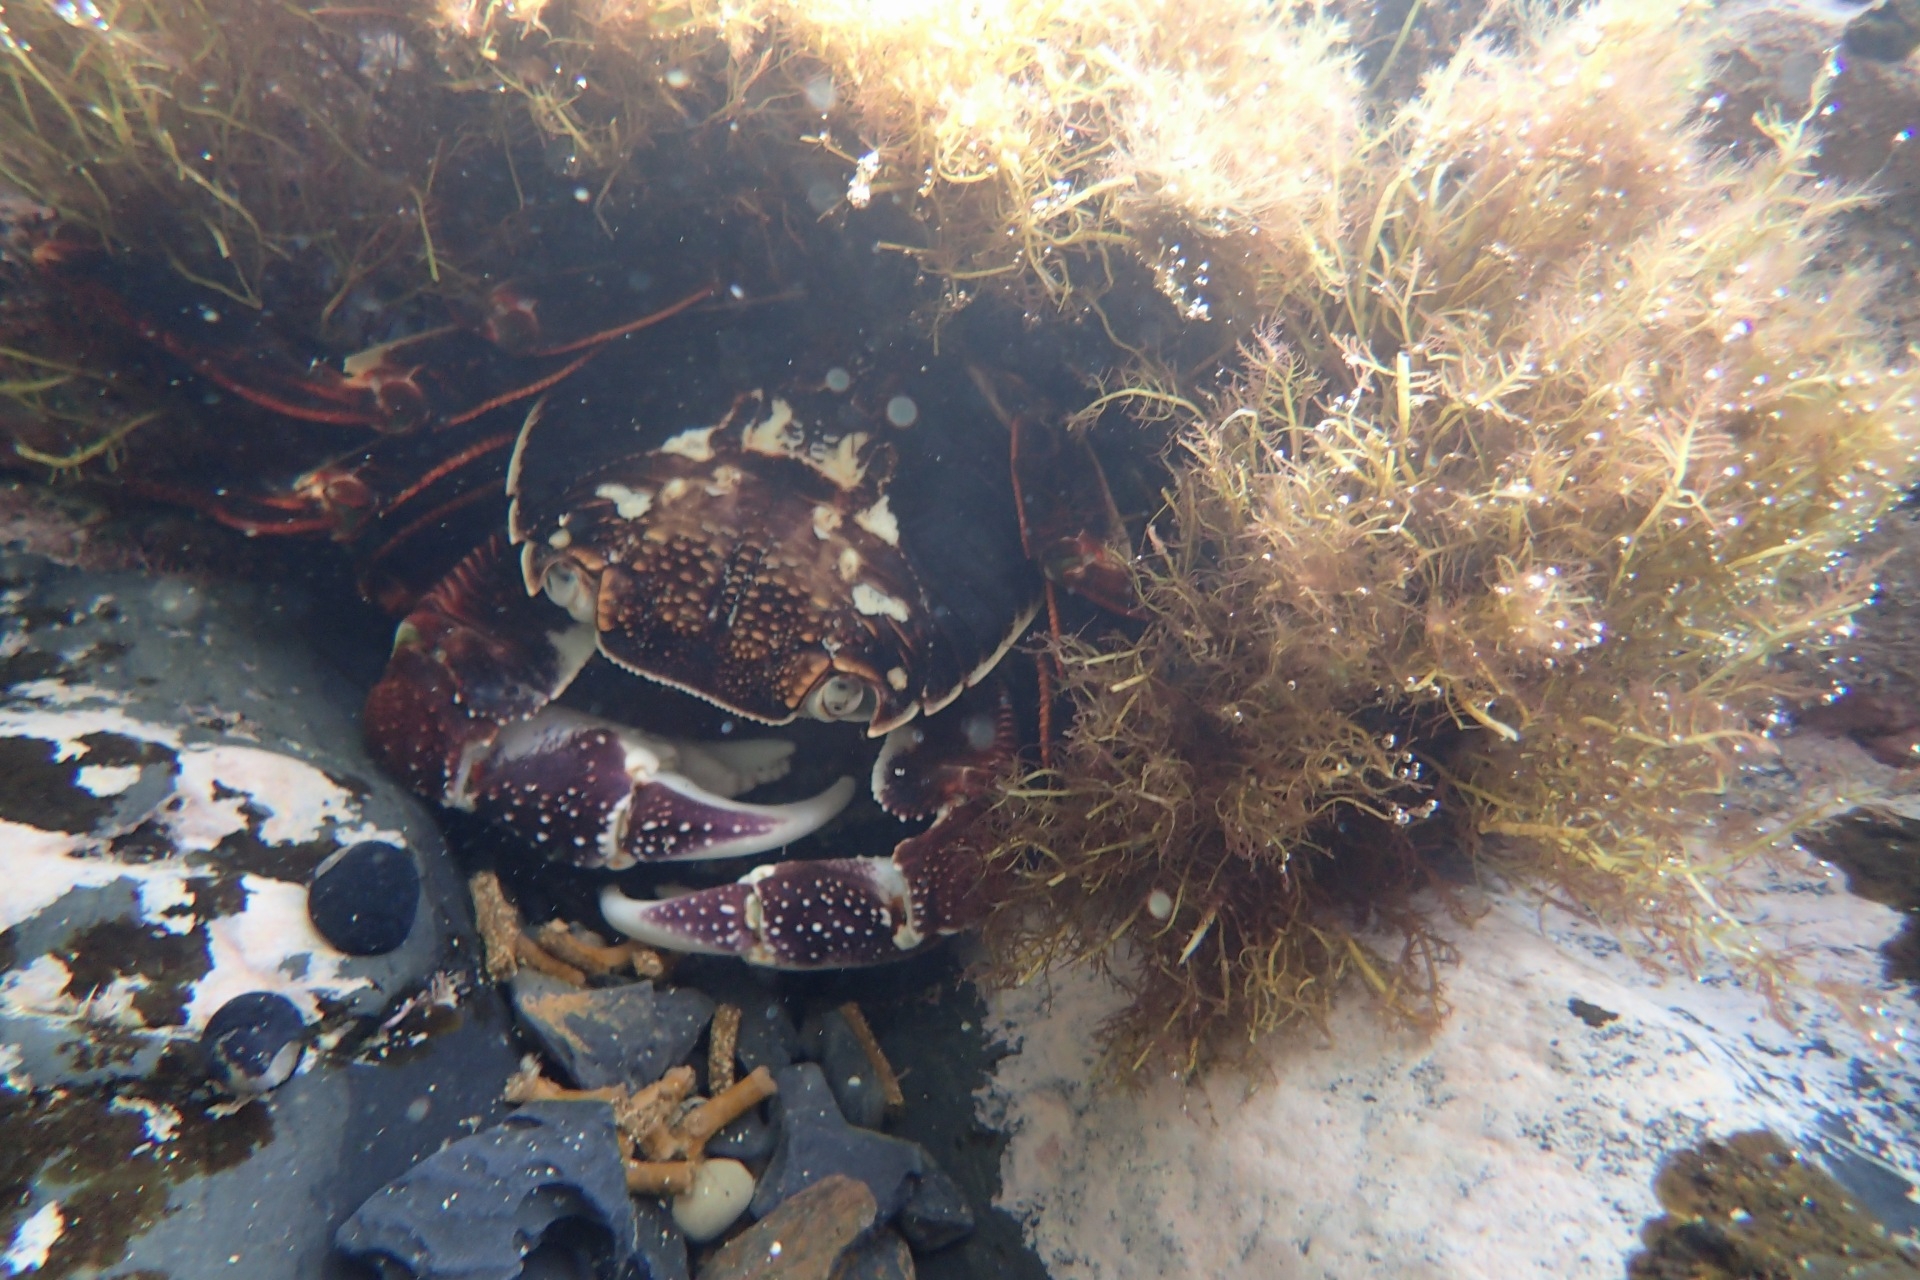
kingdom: Animalia
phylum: Arthropoda
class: Malacostraca
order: Decapoda
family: Grapsidae
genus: Leptograpsus
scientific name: Leptograpsus variegatus
